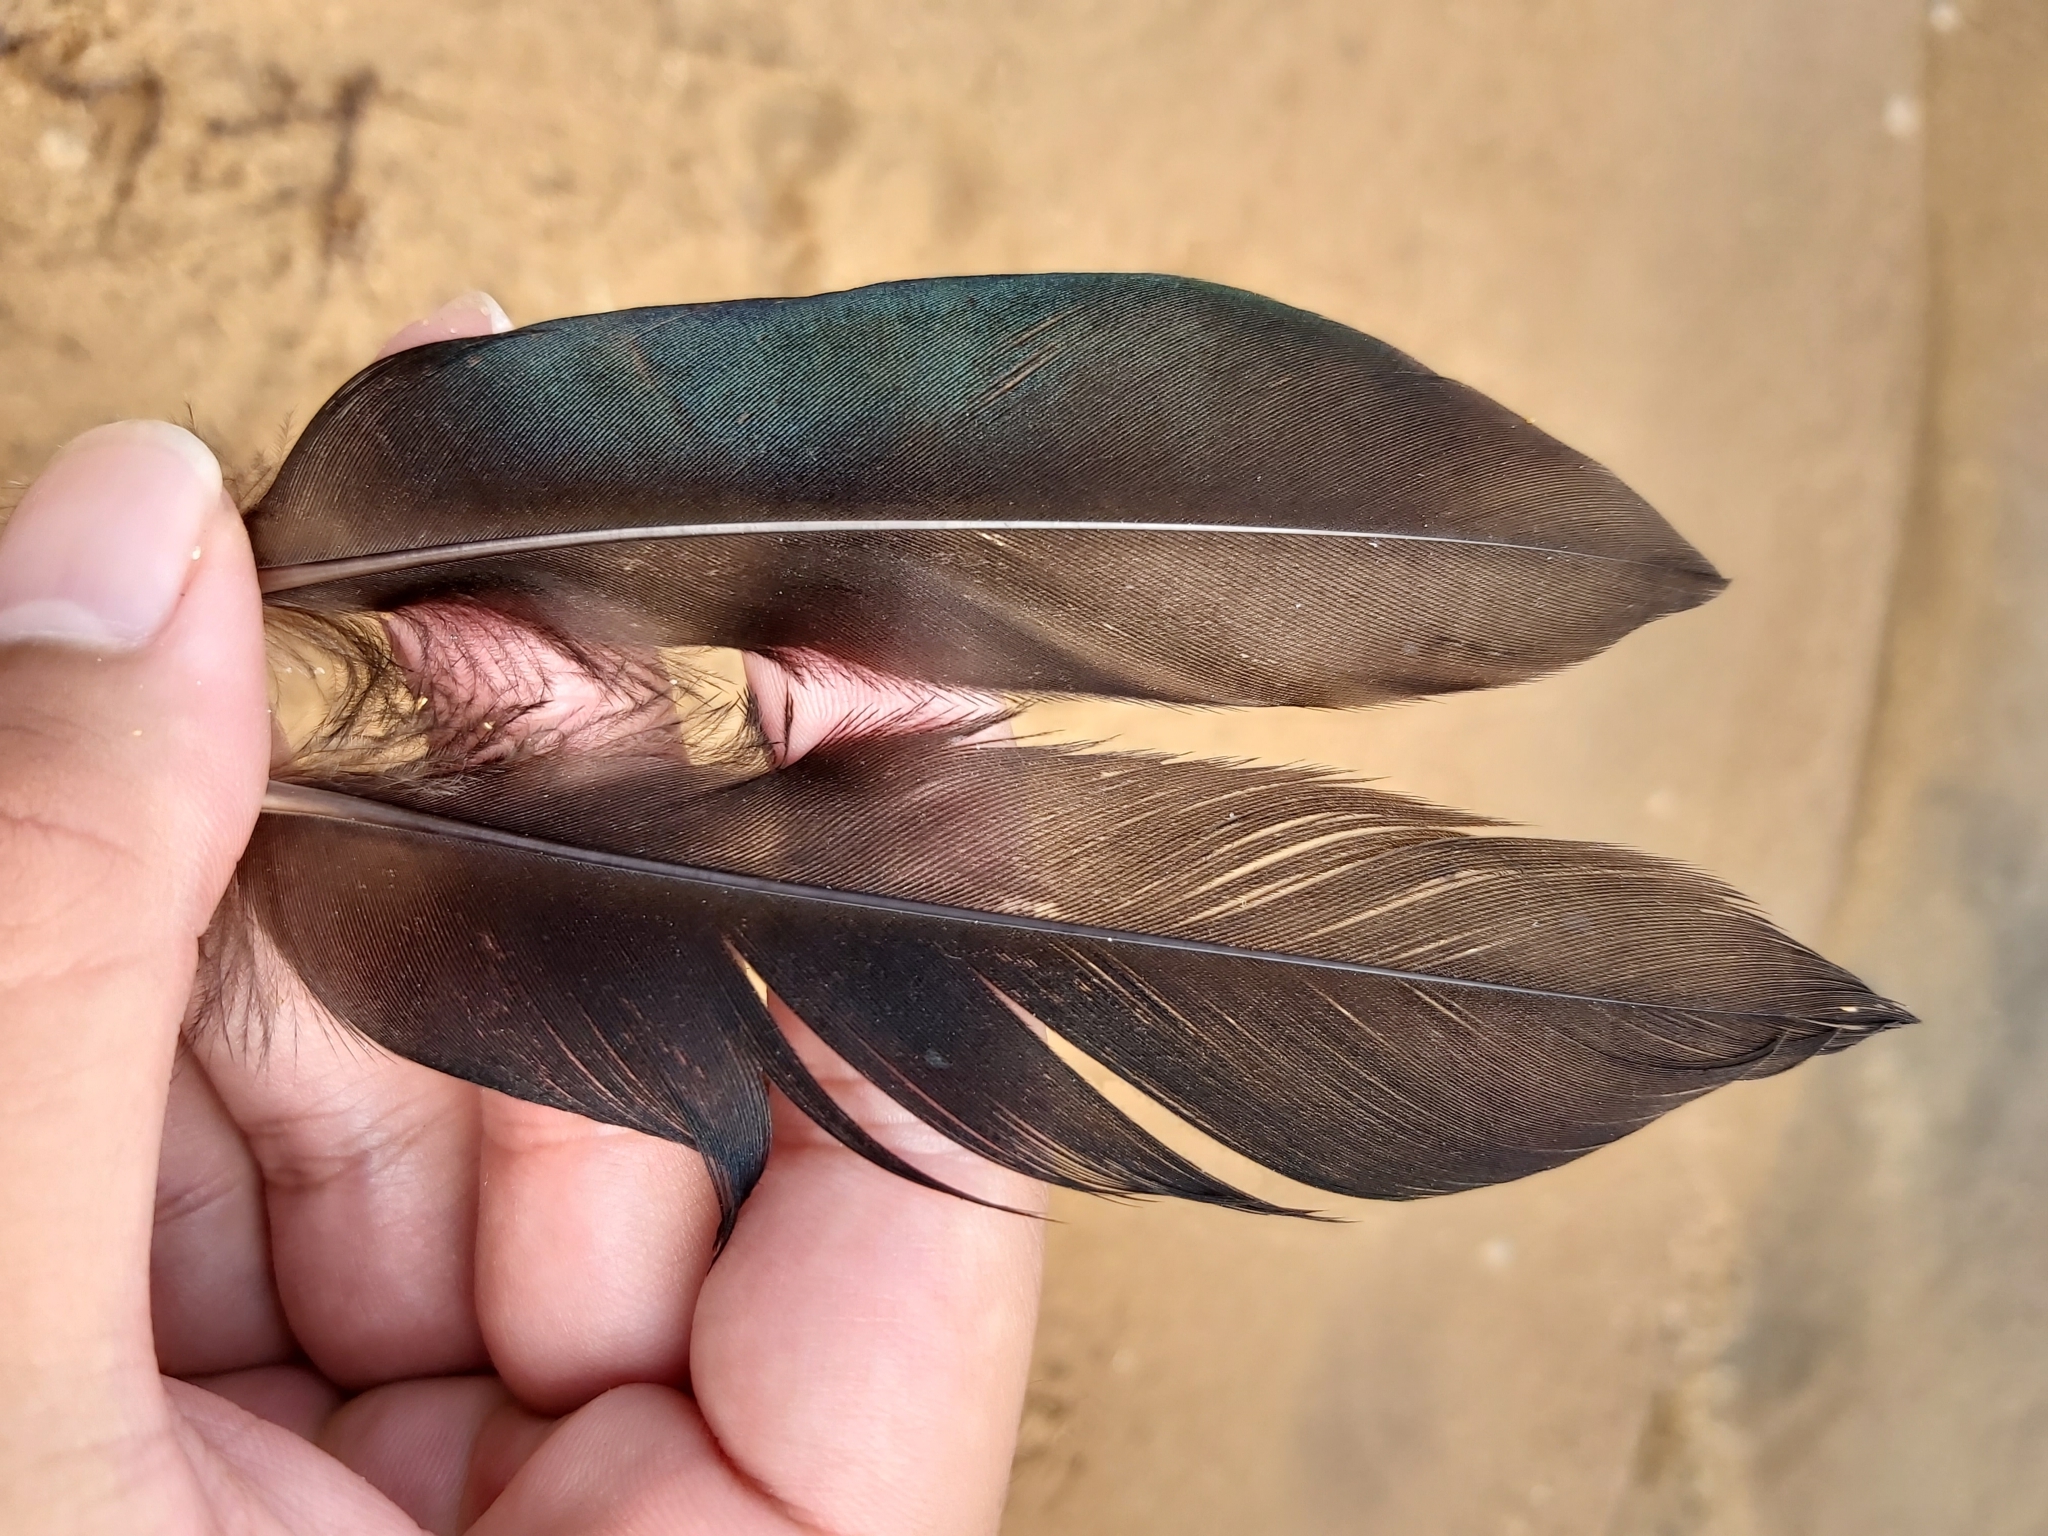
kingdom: Animalia
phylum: Chordata
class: Aves
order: Anseriformes
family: Anatidae
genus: Anas
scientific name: Anas superciliosa
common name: Pacific black duck
